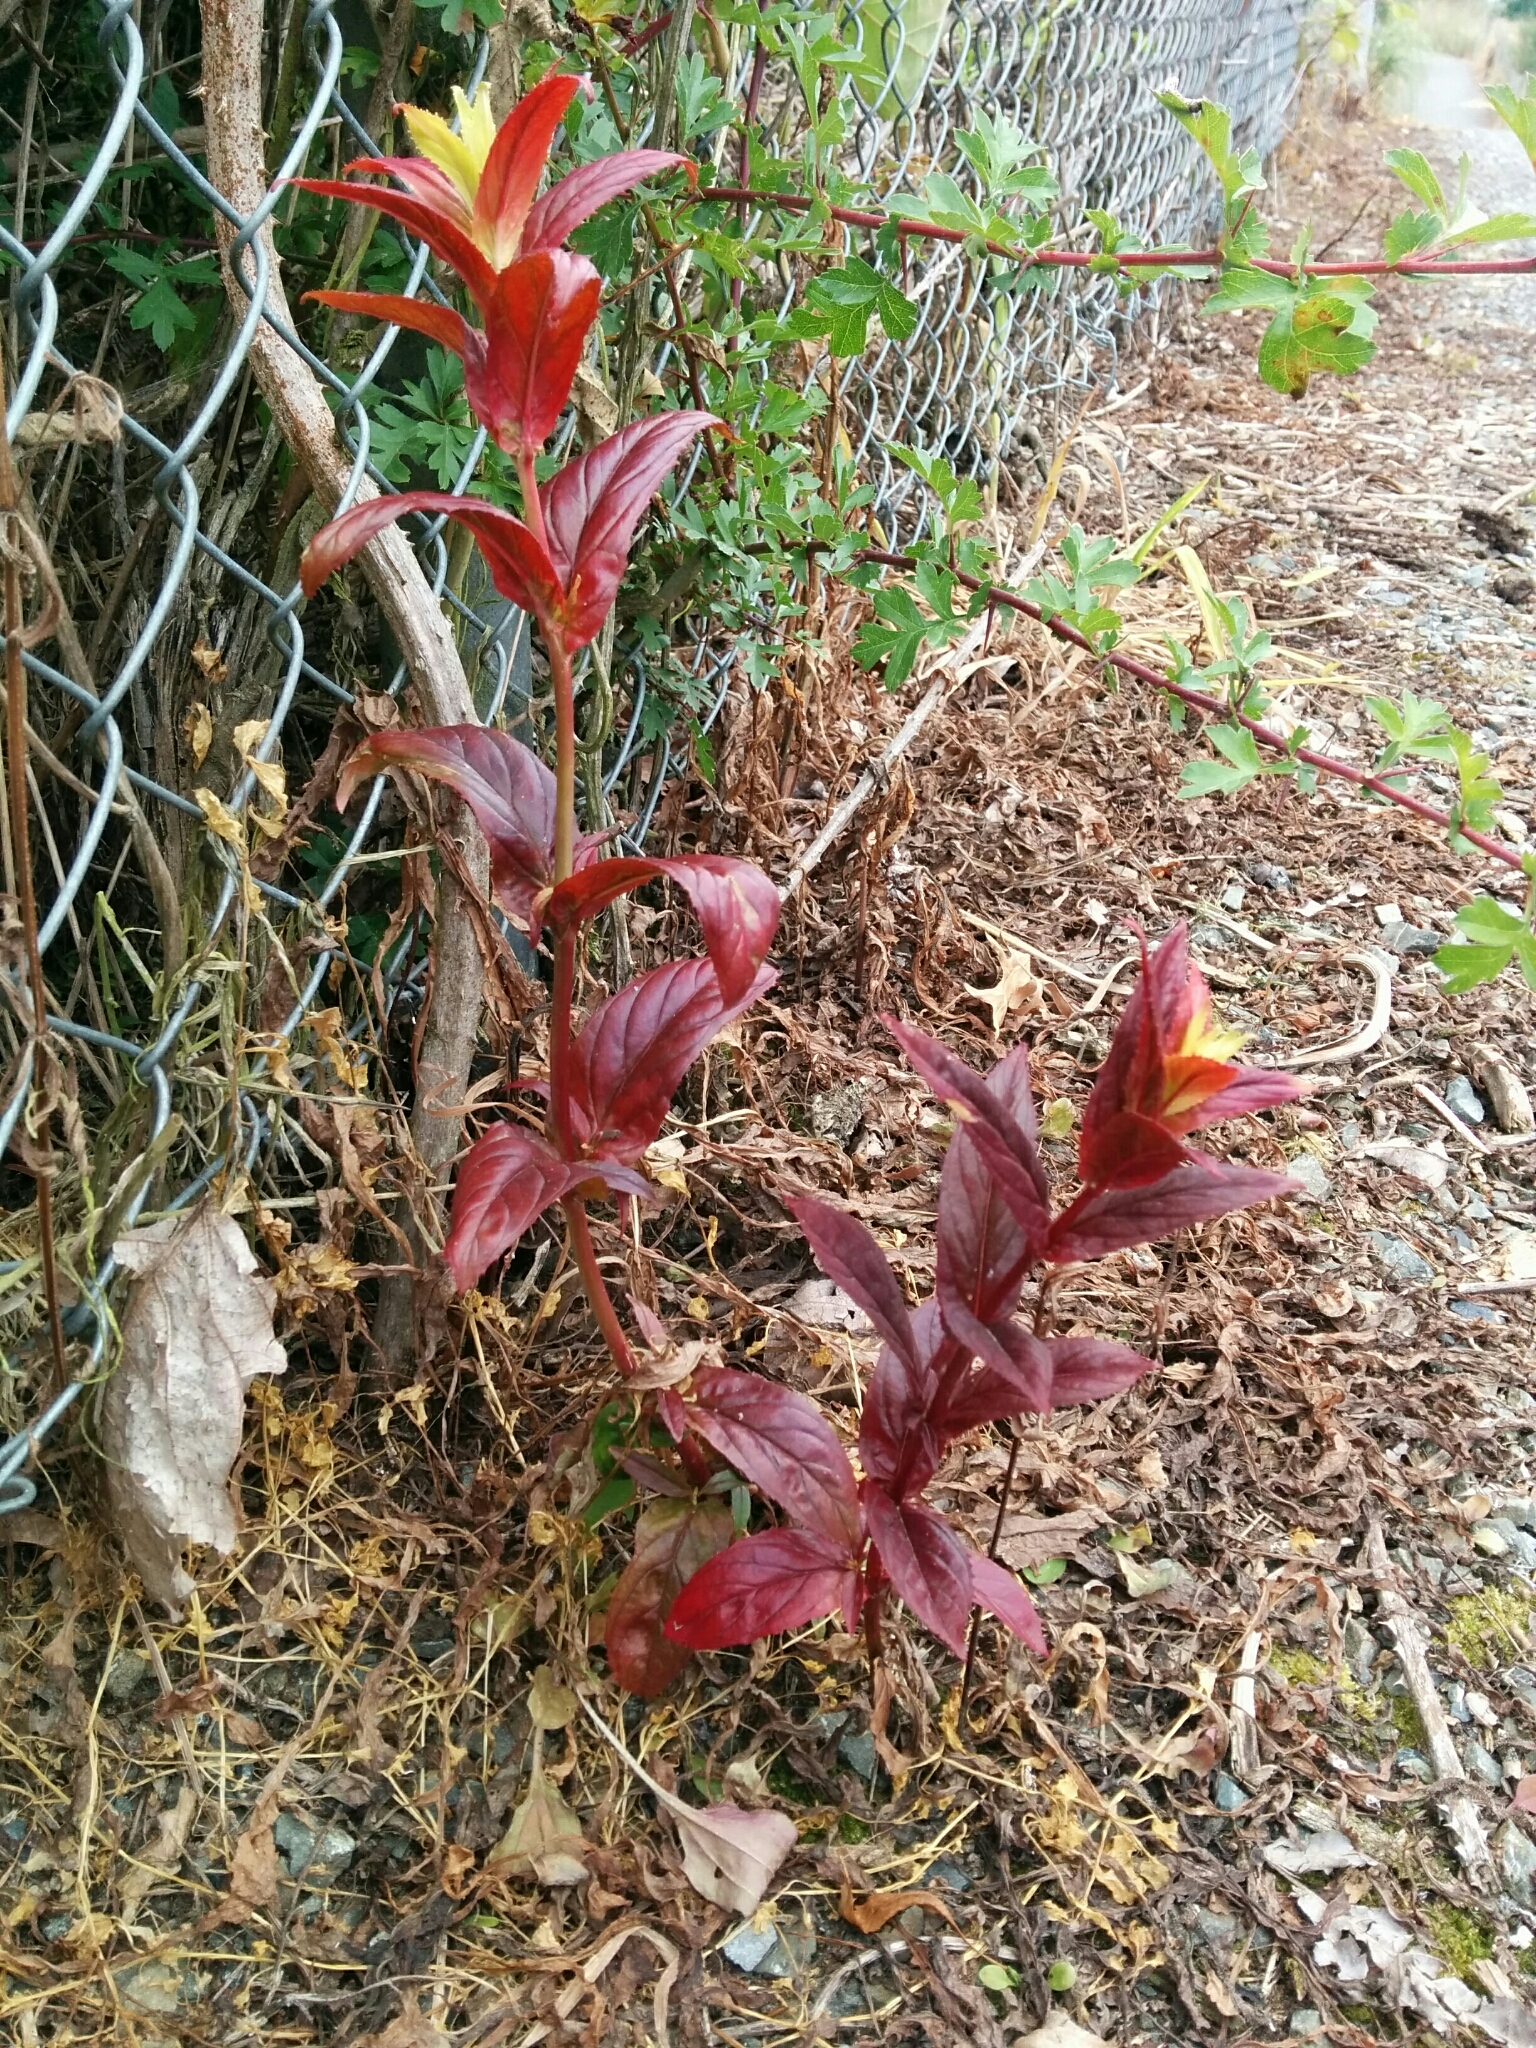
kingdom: Plantae
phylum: Tracheophyta
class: Magnoliopsida
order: Myrtales
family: Onagraceae
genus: Epilobium
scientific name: Epilobium ciliatum
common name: American willowherb
